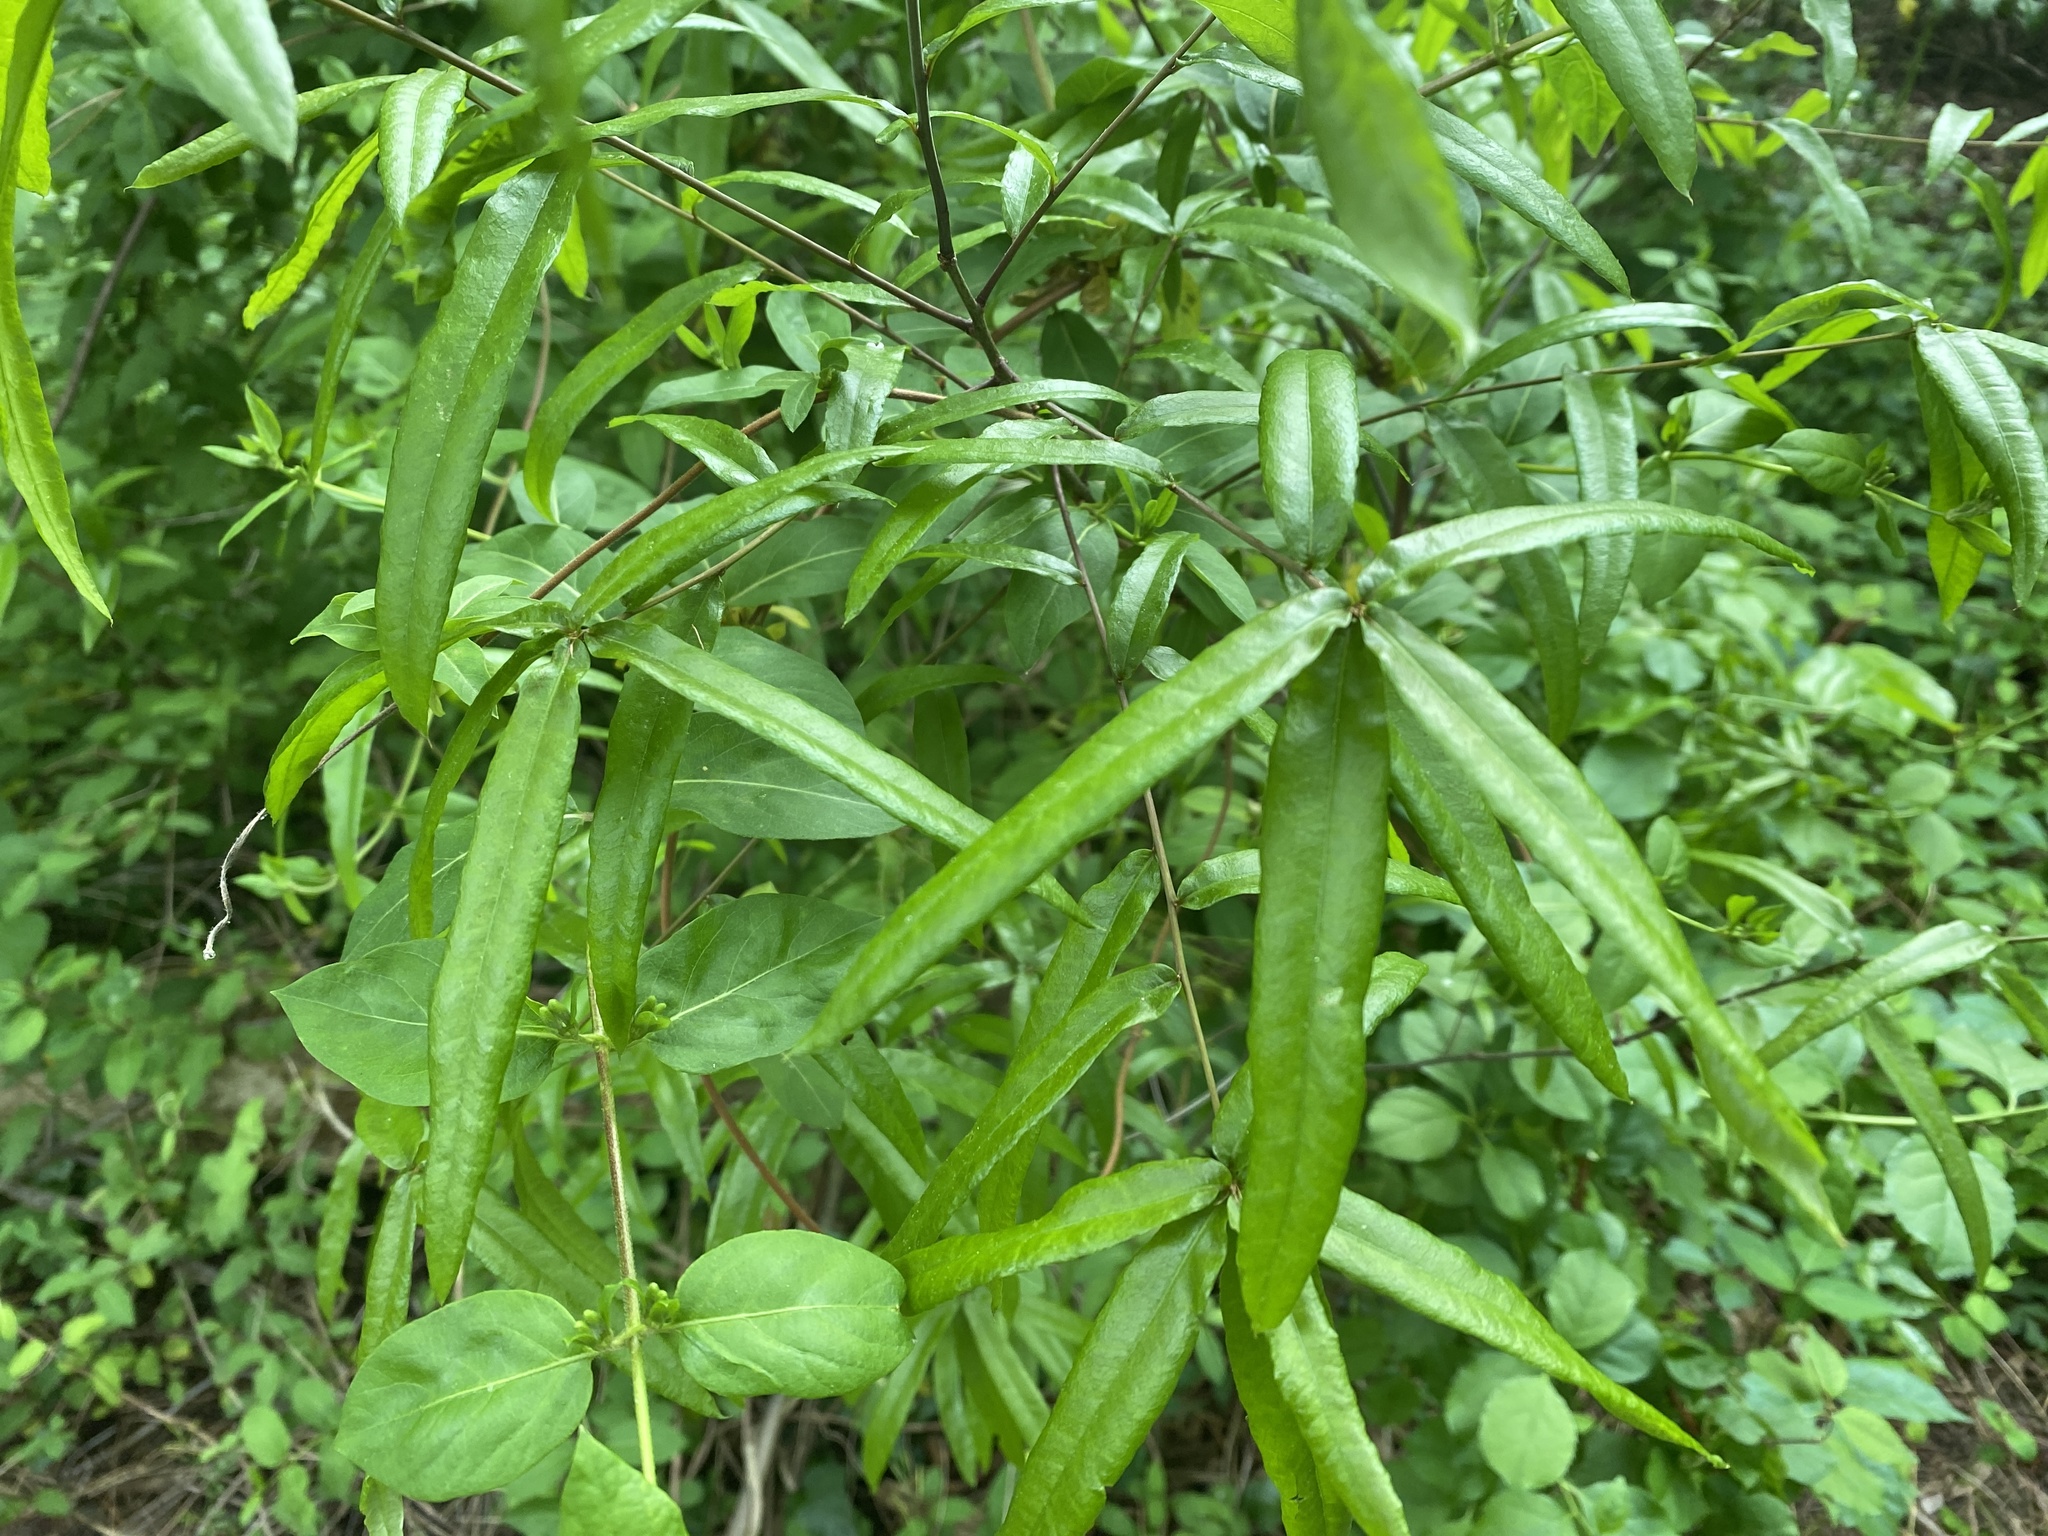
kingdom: Plantae
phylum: Tracheophyta
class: Magnoliopsida
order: Fagales
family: Fagaceae
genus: Quercus
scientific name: Quercus phellos
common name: Willow oak
